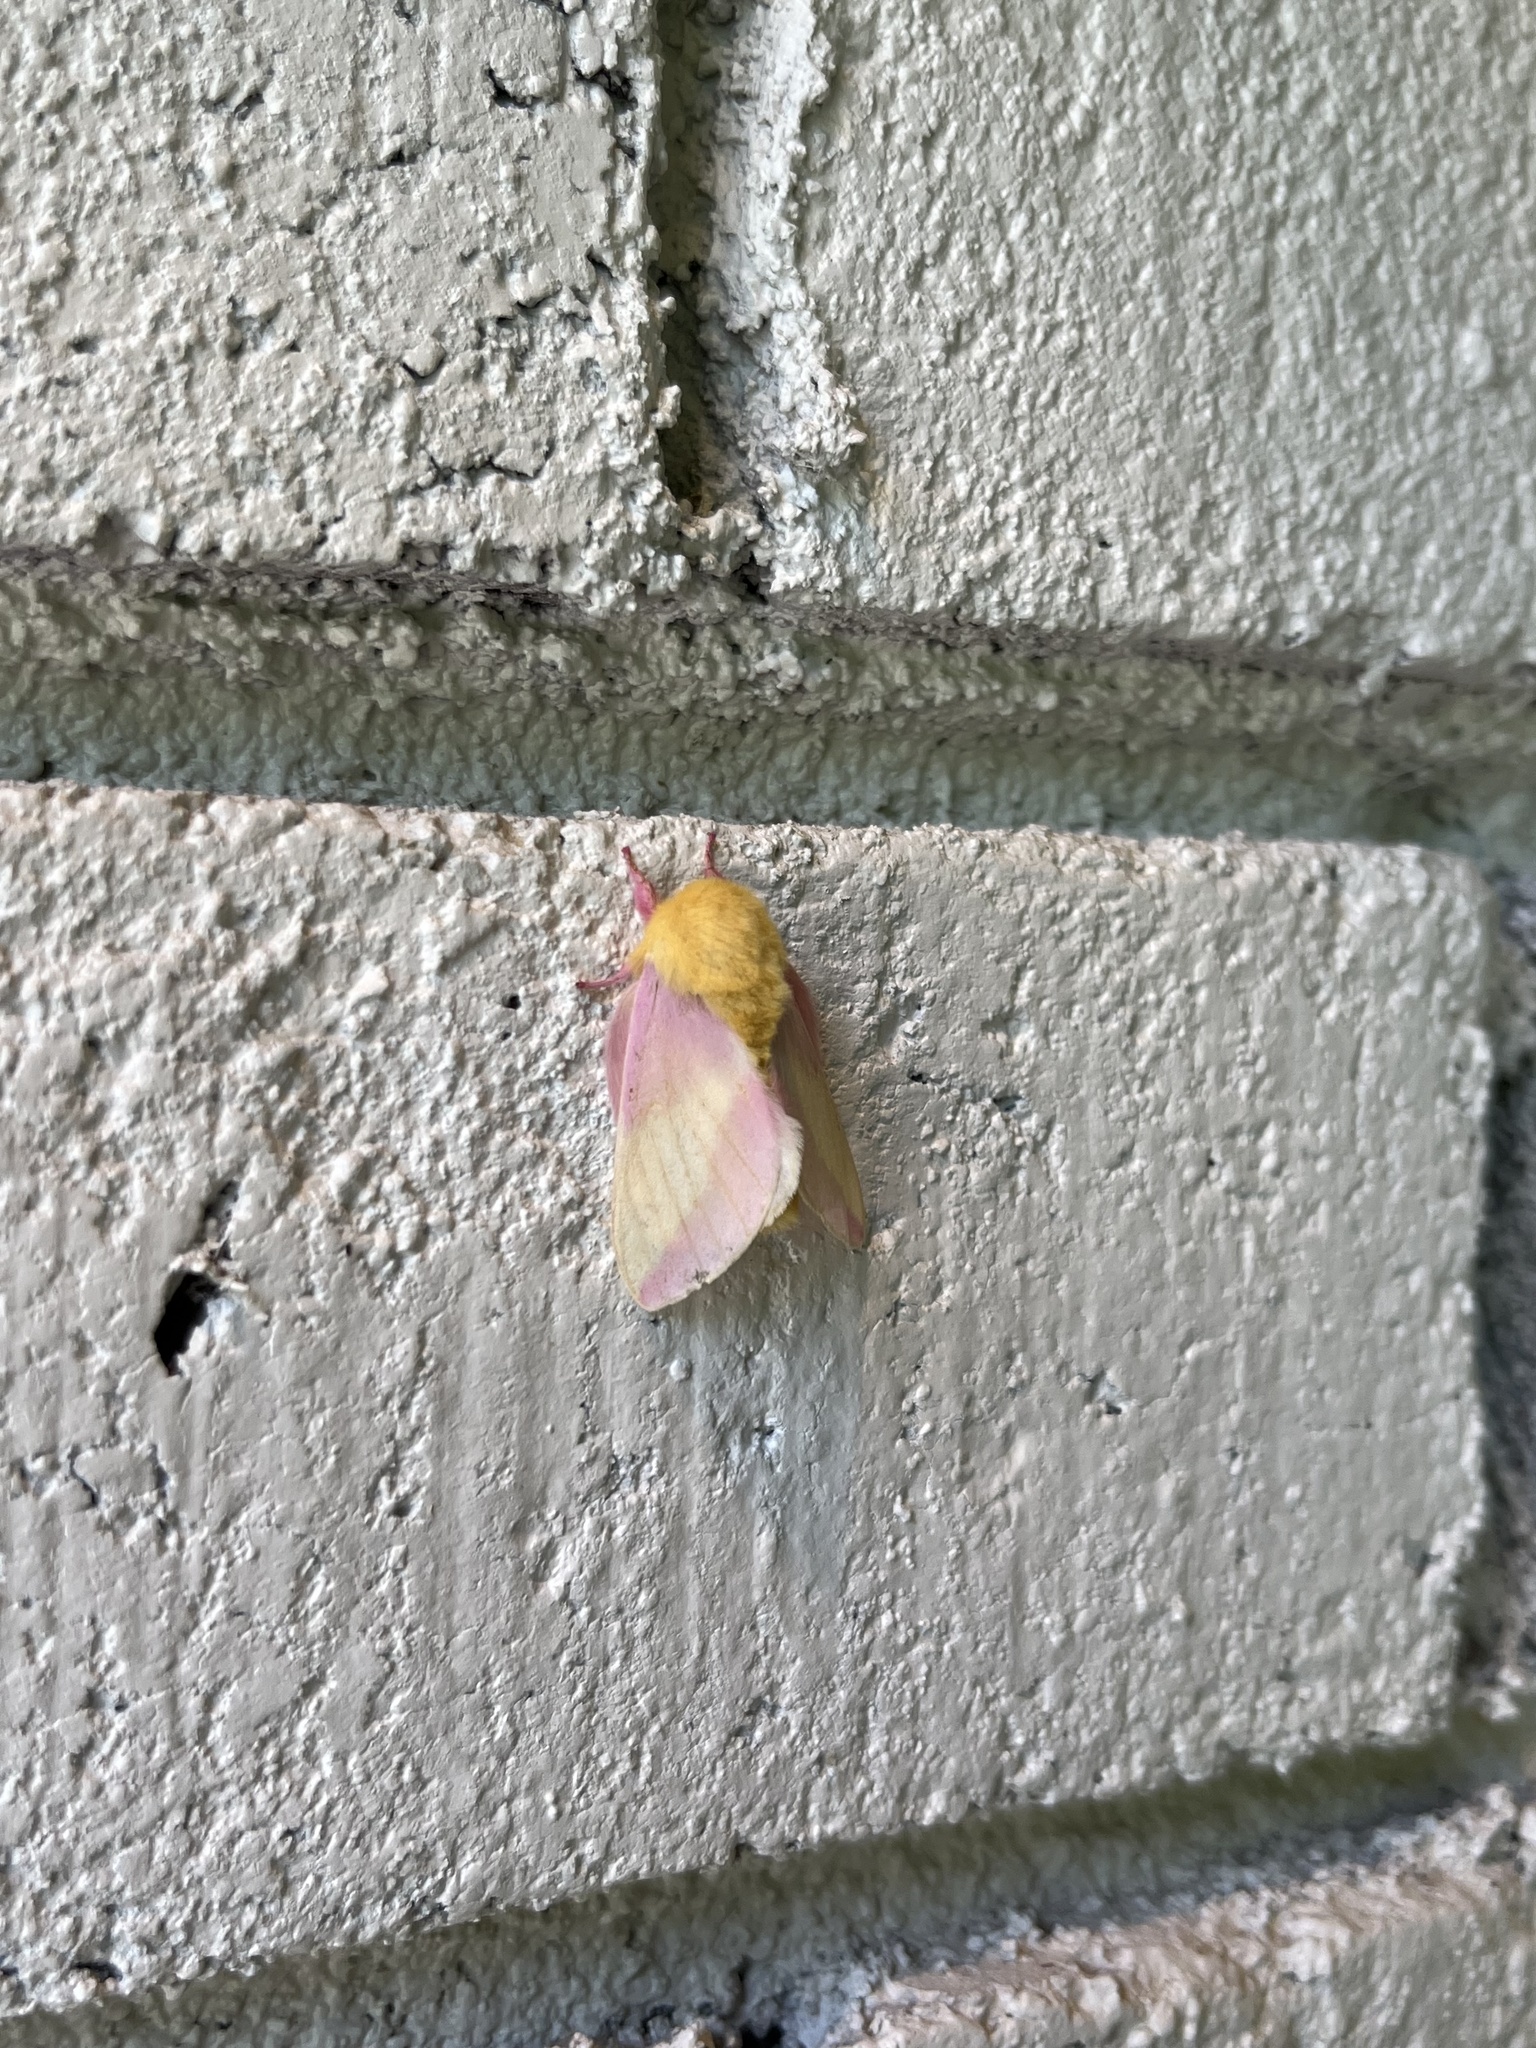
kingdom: Animalia
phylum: Arthropoda
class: Insecta
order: Lepidoptera
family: Saturniidae
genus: Dryocampa
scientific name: Dryocampa rubicunda
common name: Rosy maple moth
